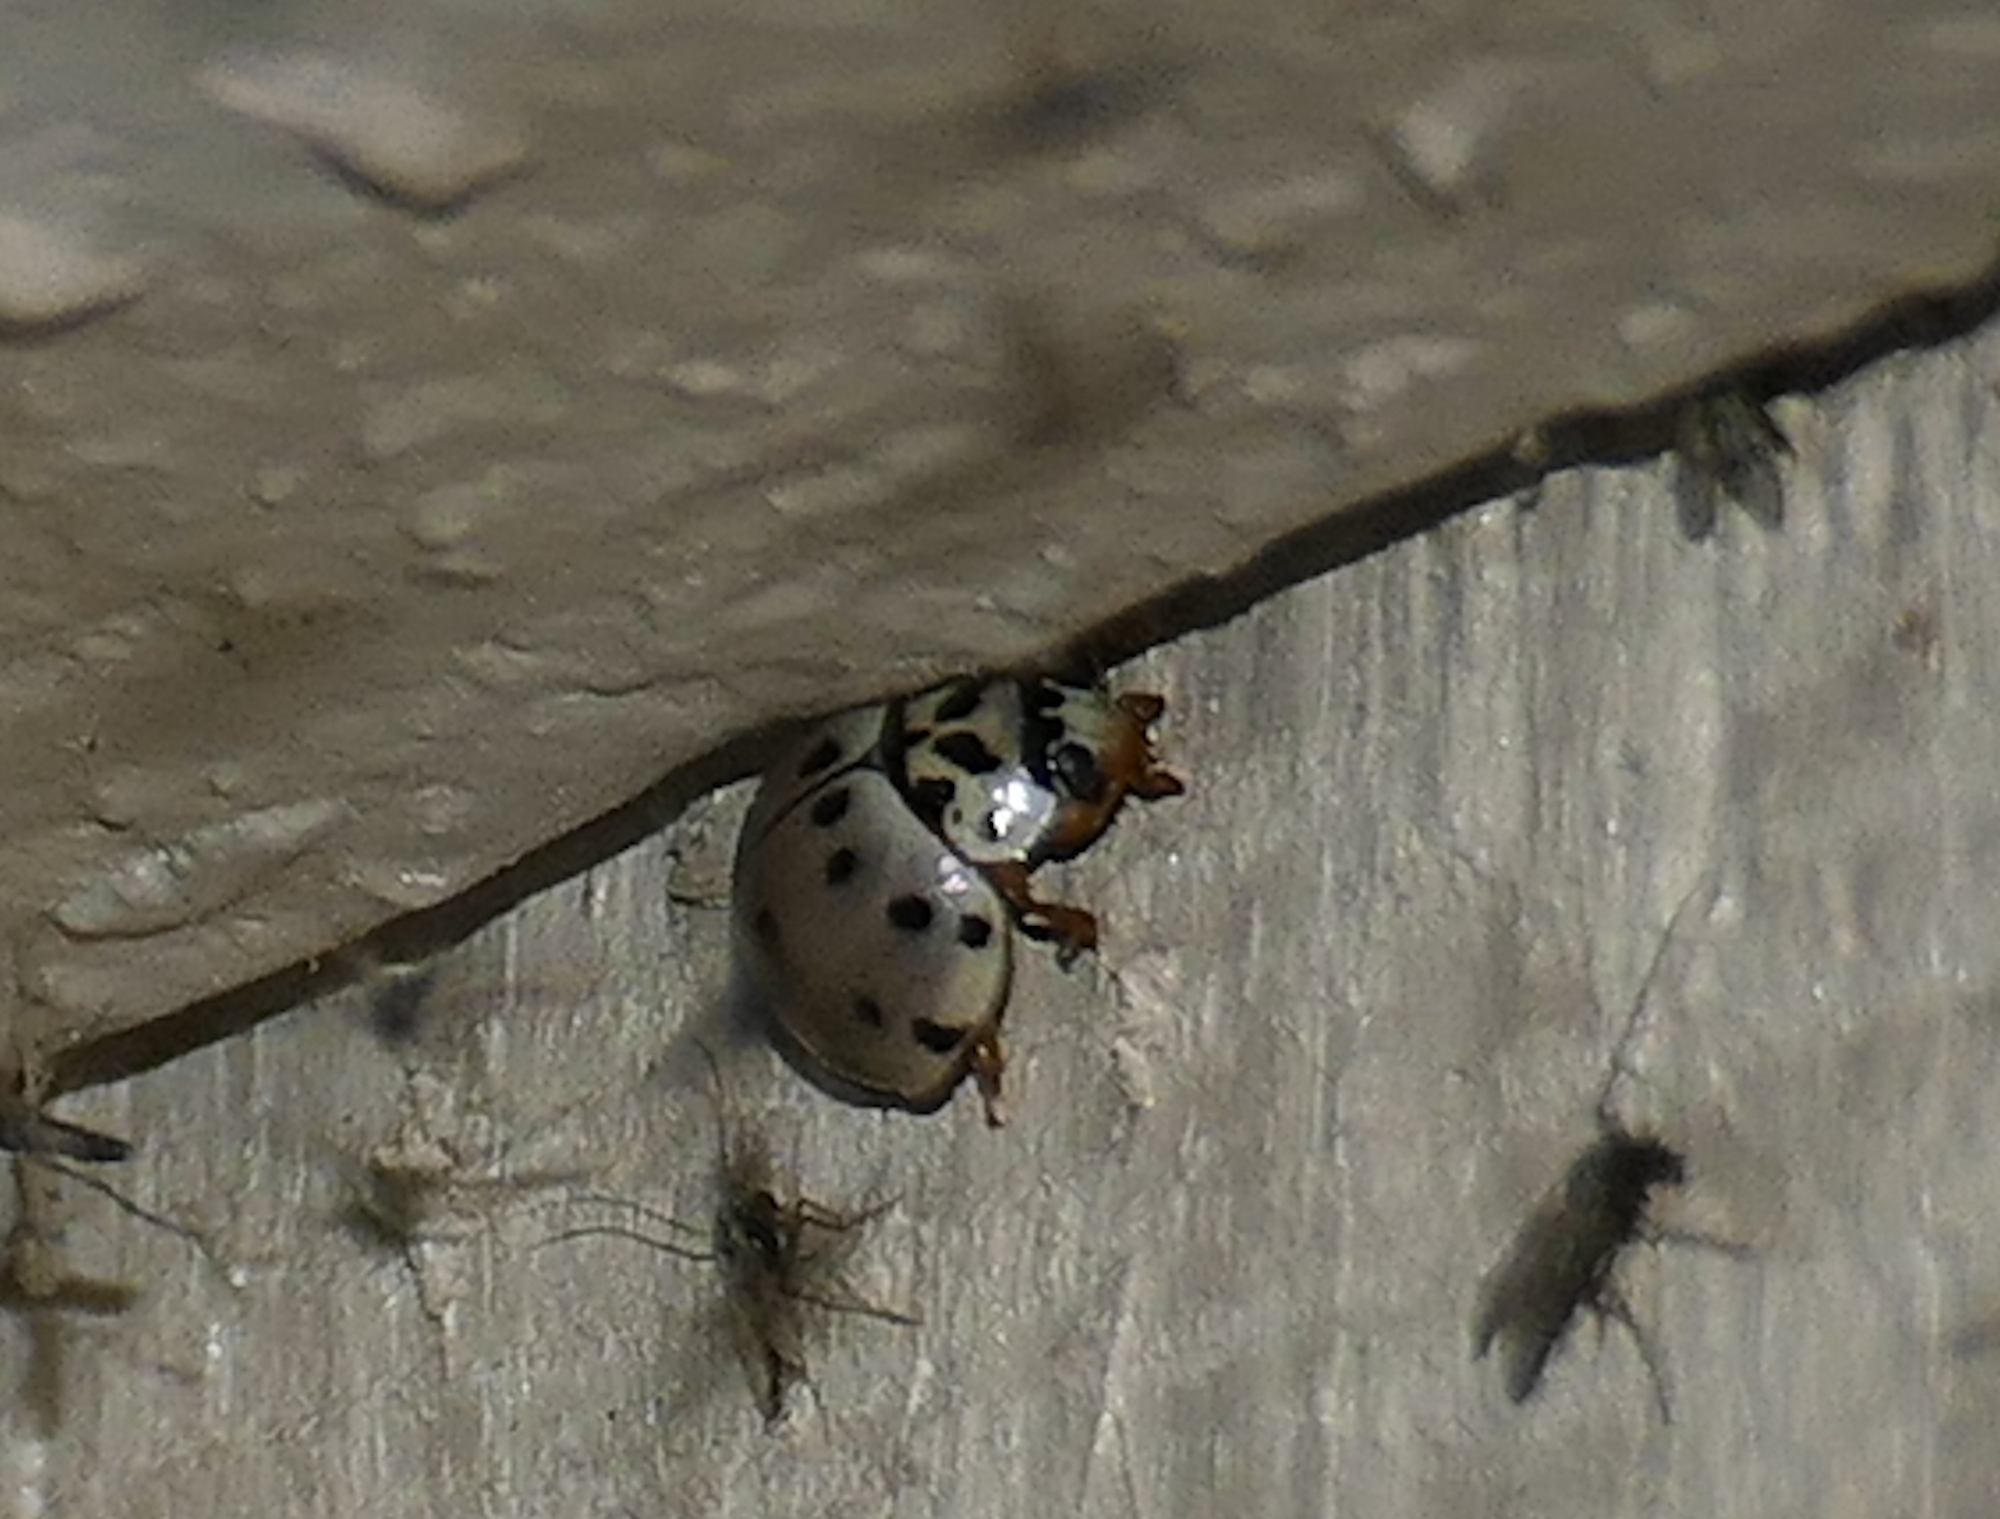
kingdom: Animalia
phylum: Arthropoda
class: Insecta
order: Coleoptera
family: Coccinellidae
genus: Olla
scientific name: Olla v-nigrum
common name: Ashy gray lady beetle
